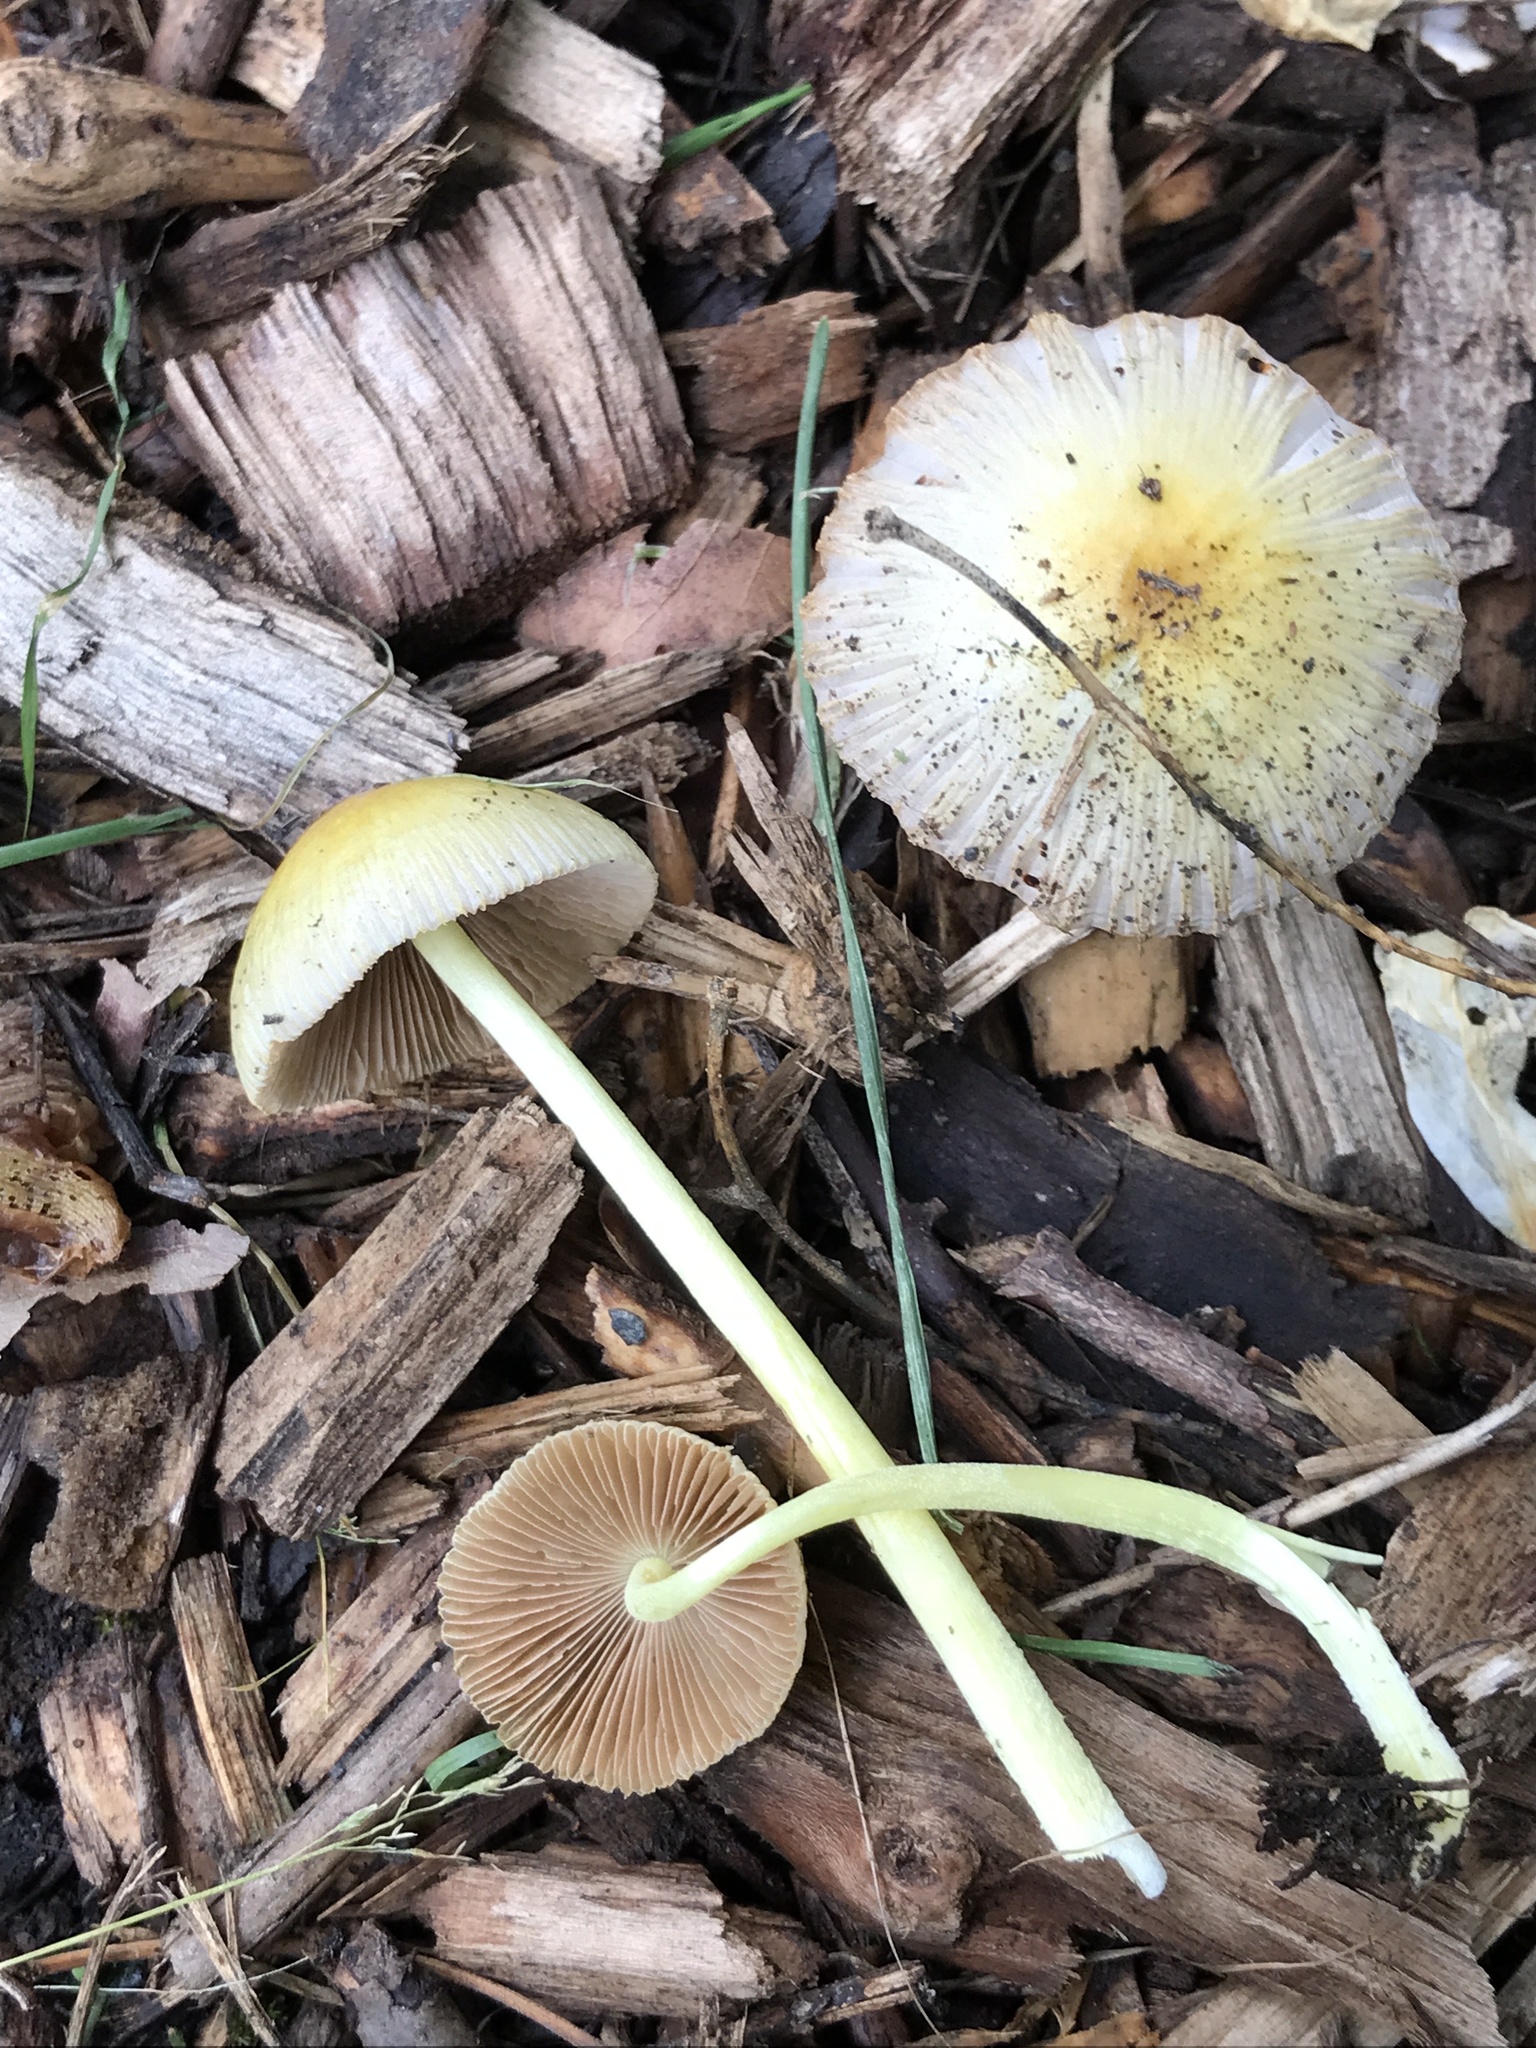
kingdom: Fungi
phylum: Basidiomycota
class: Agaricomycetes
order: Agaricales
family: Bolbitiaceae
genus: Bolbitius
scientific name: Bolbitius titubans
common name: Yellow fieldcap
